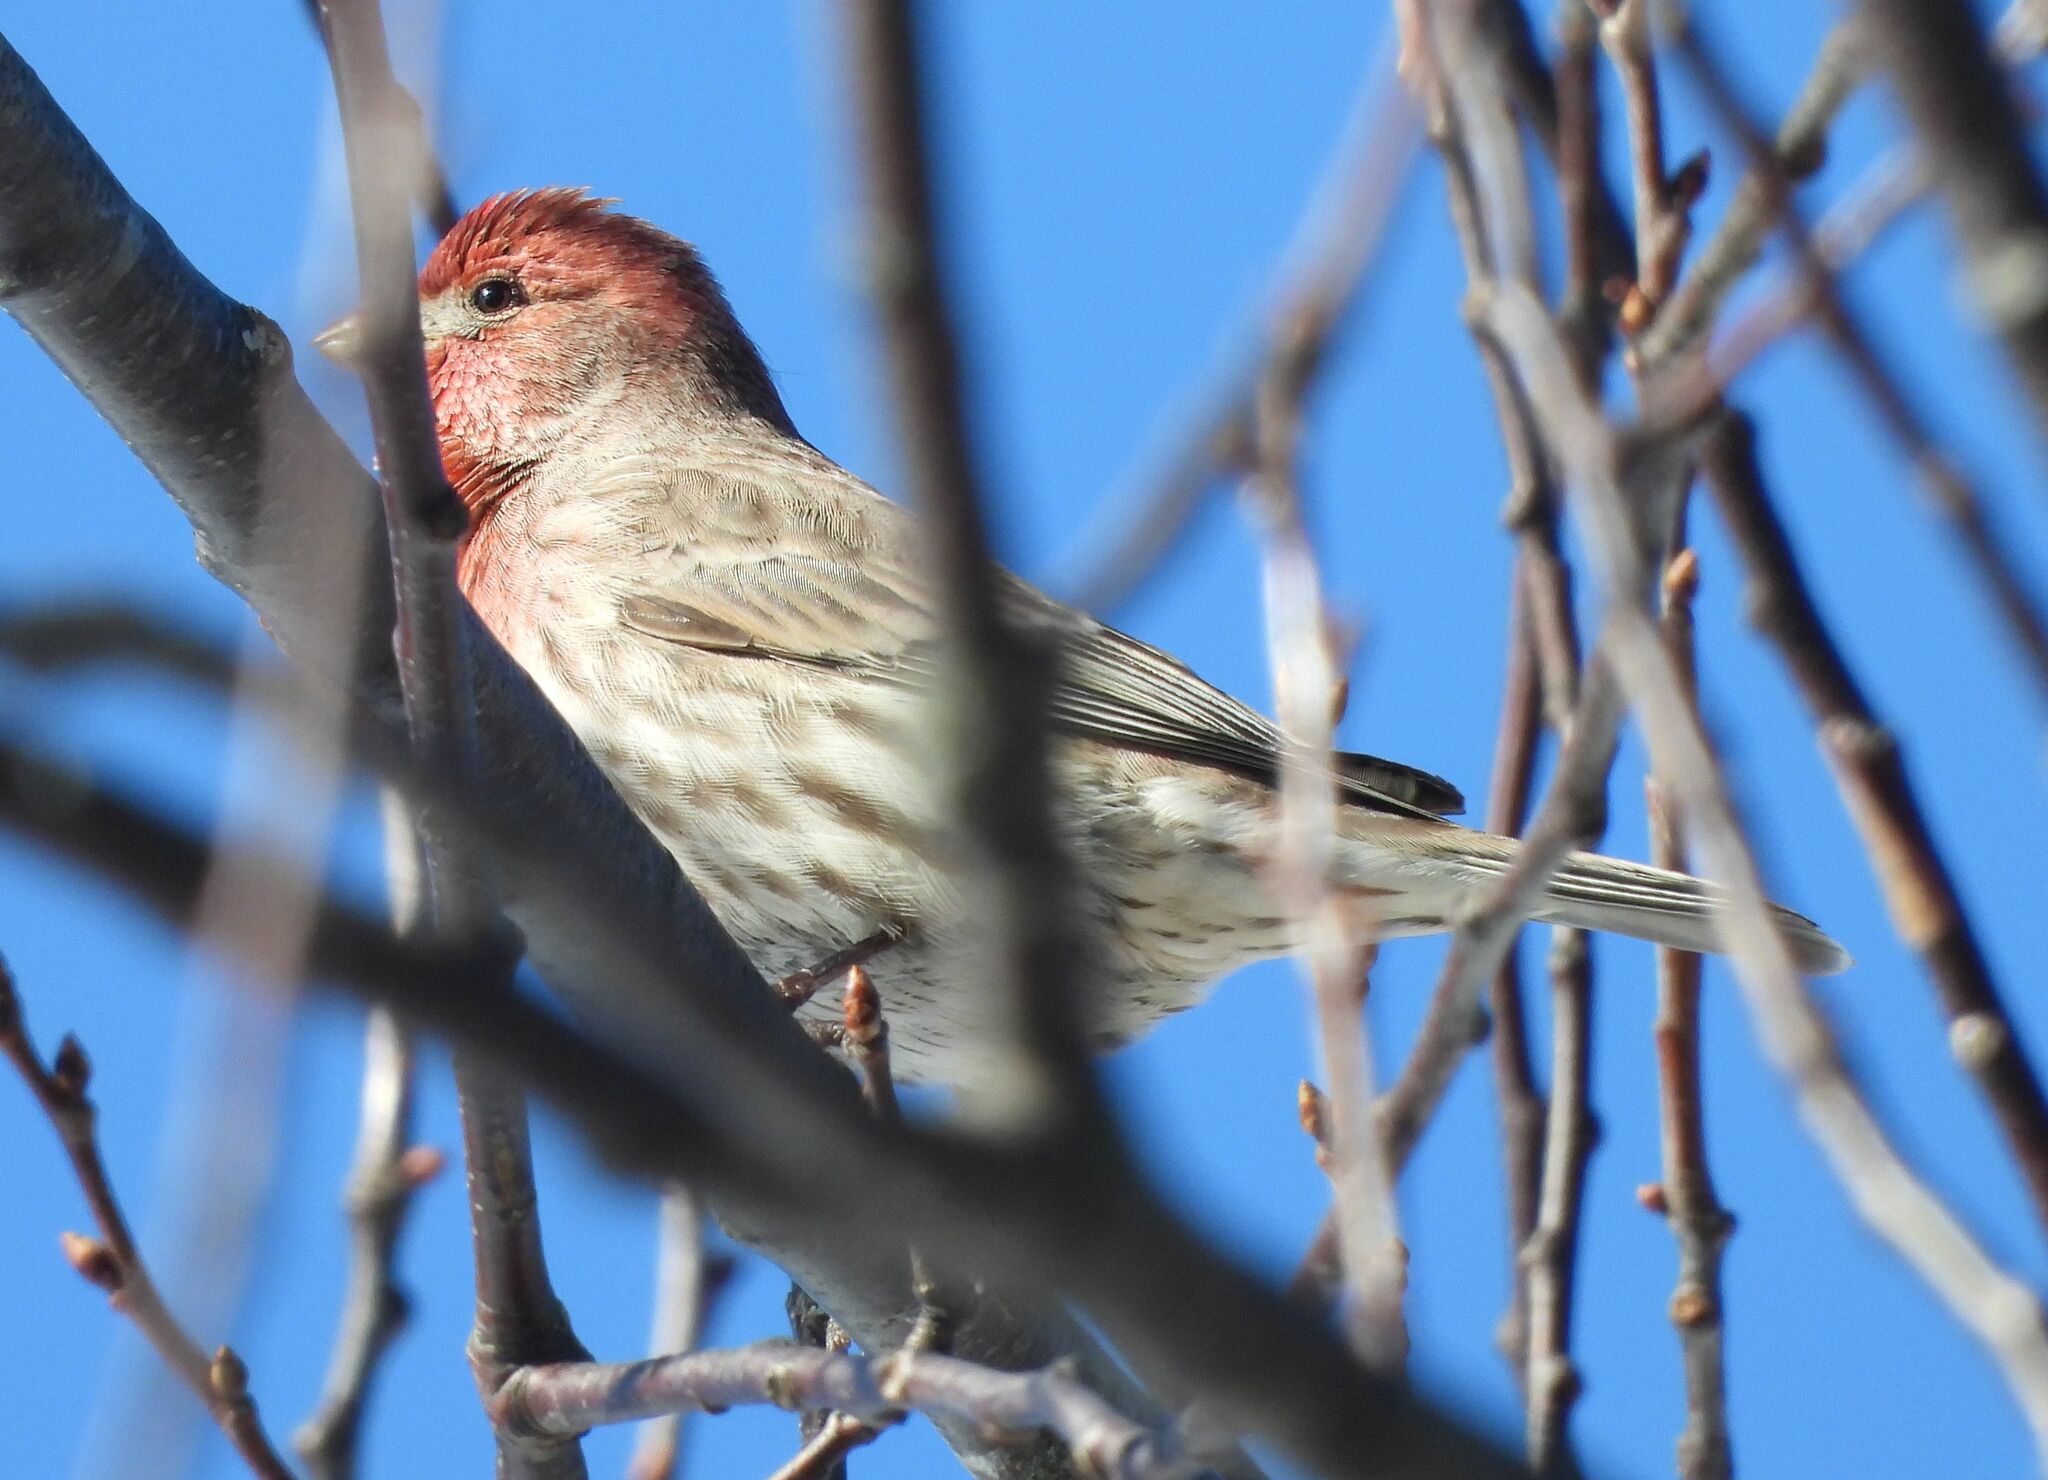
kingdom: Animalia
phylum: Chordata
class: Aves
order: Passeriformes
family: Fringillidae
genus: Haemorhous
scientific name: Haemorhous mexicanus
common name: House finch
